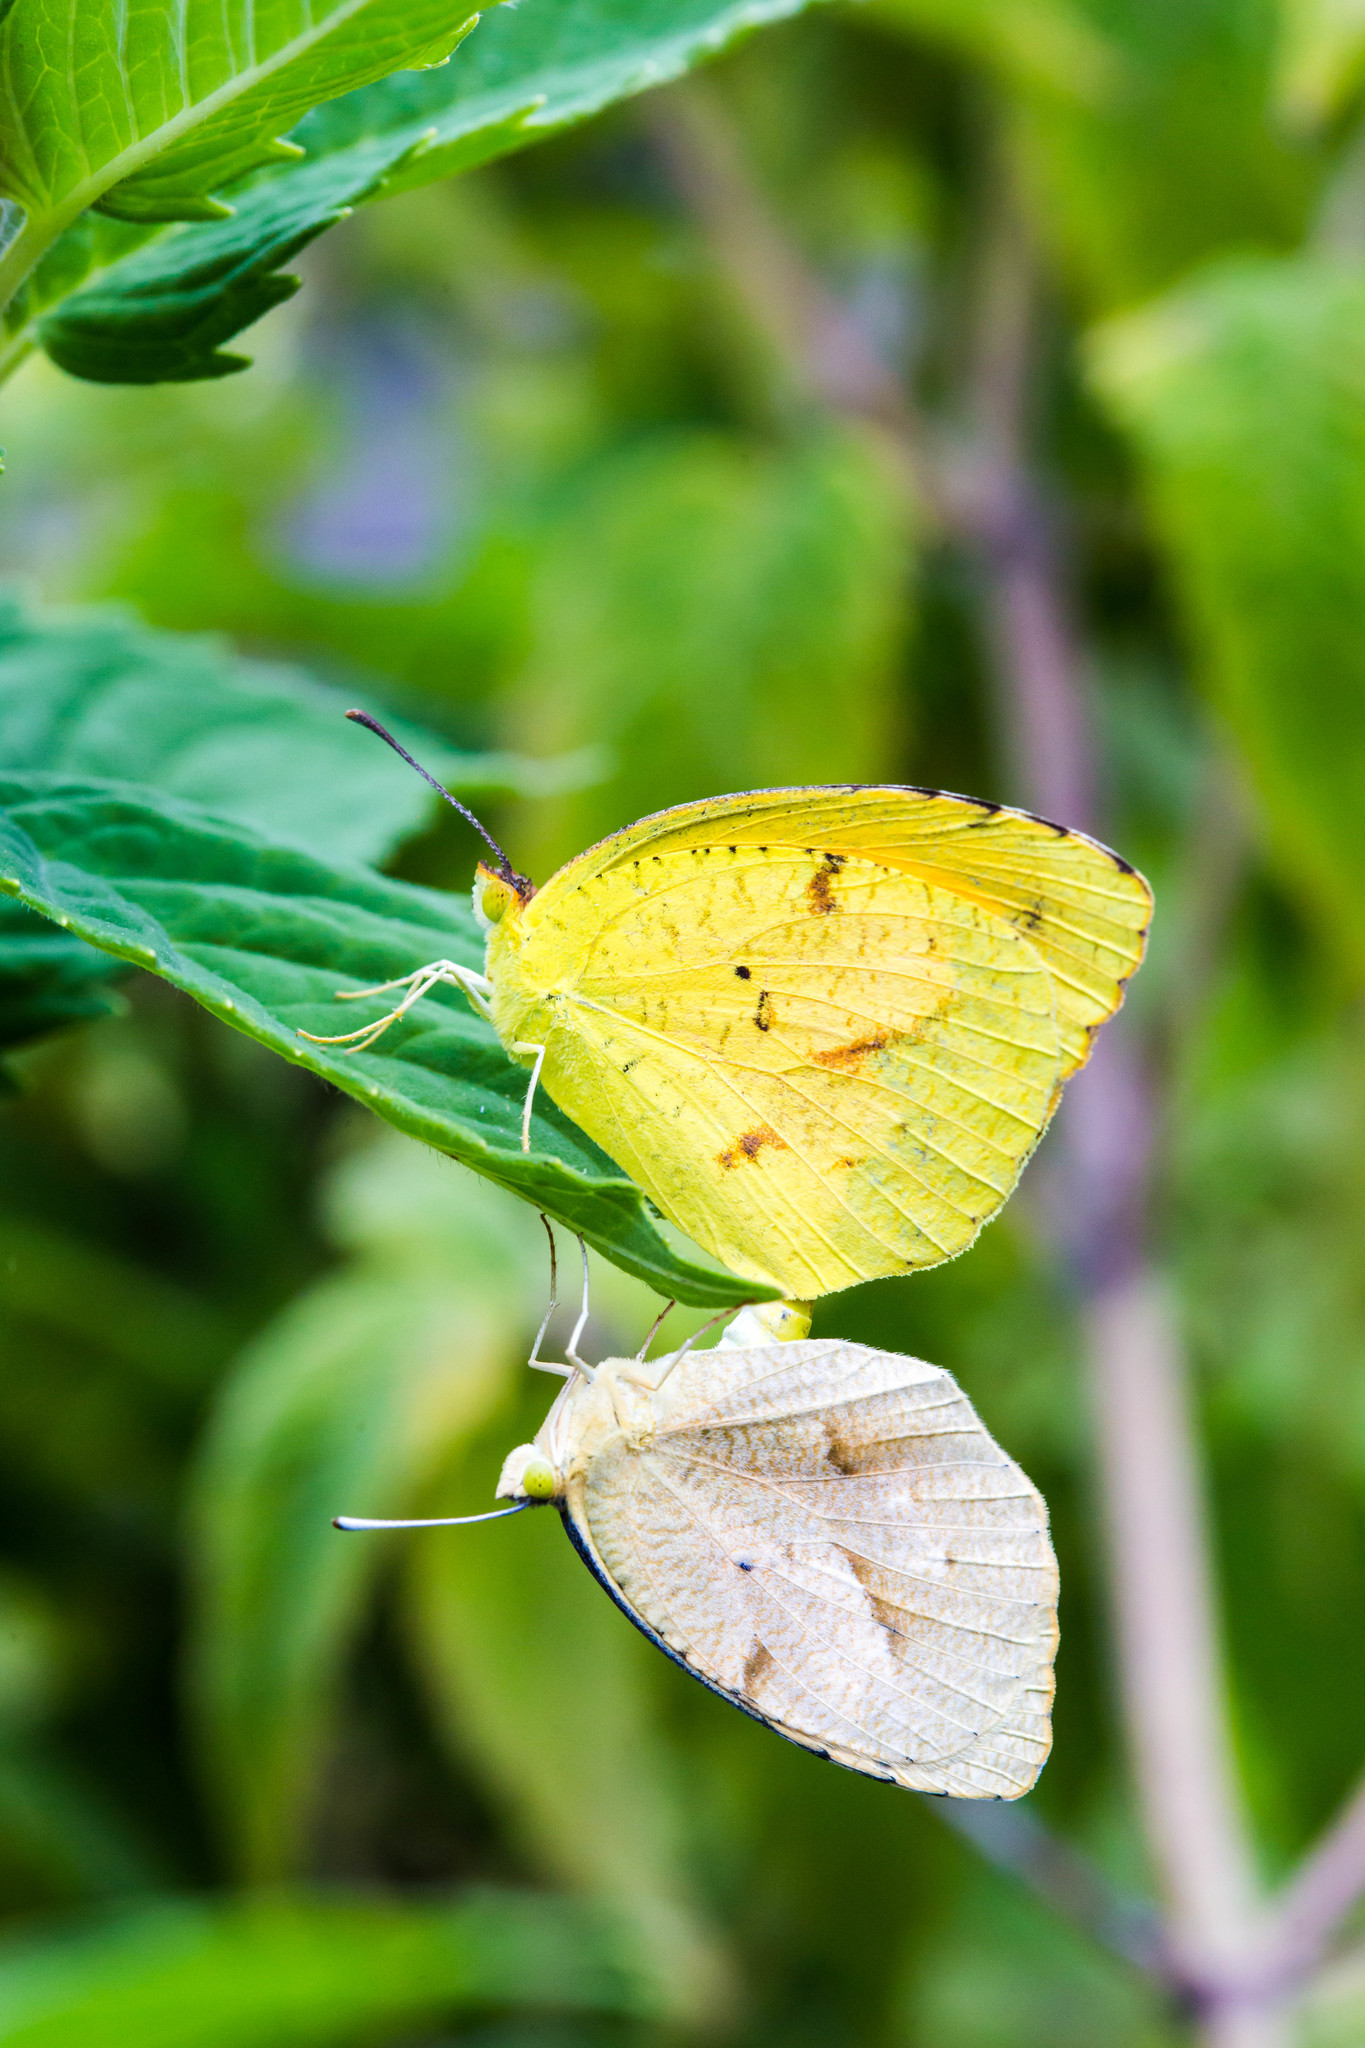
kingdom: Animalia
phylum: Arthropoda
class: Insecta
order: Lepidoptera
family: Pieridae
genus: Abaeis
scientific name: Abaeis nicippe
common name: Sleepy orange
